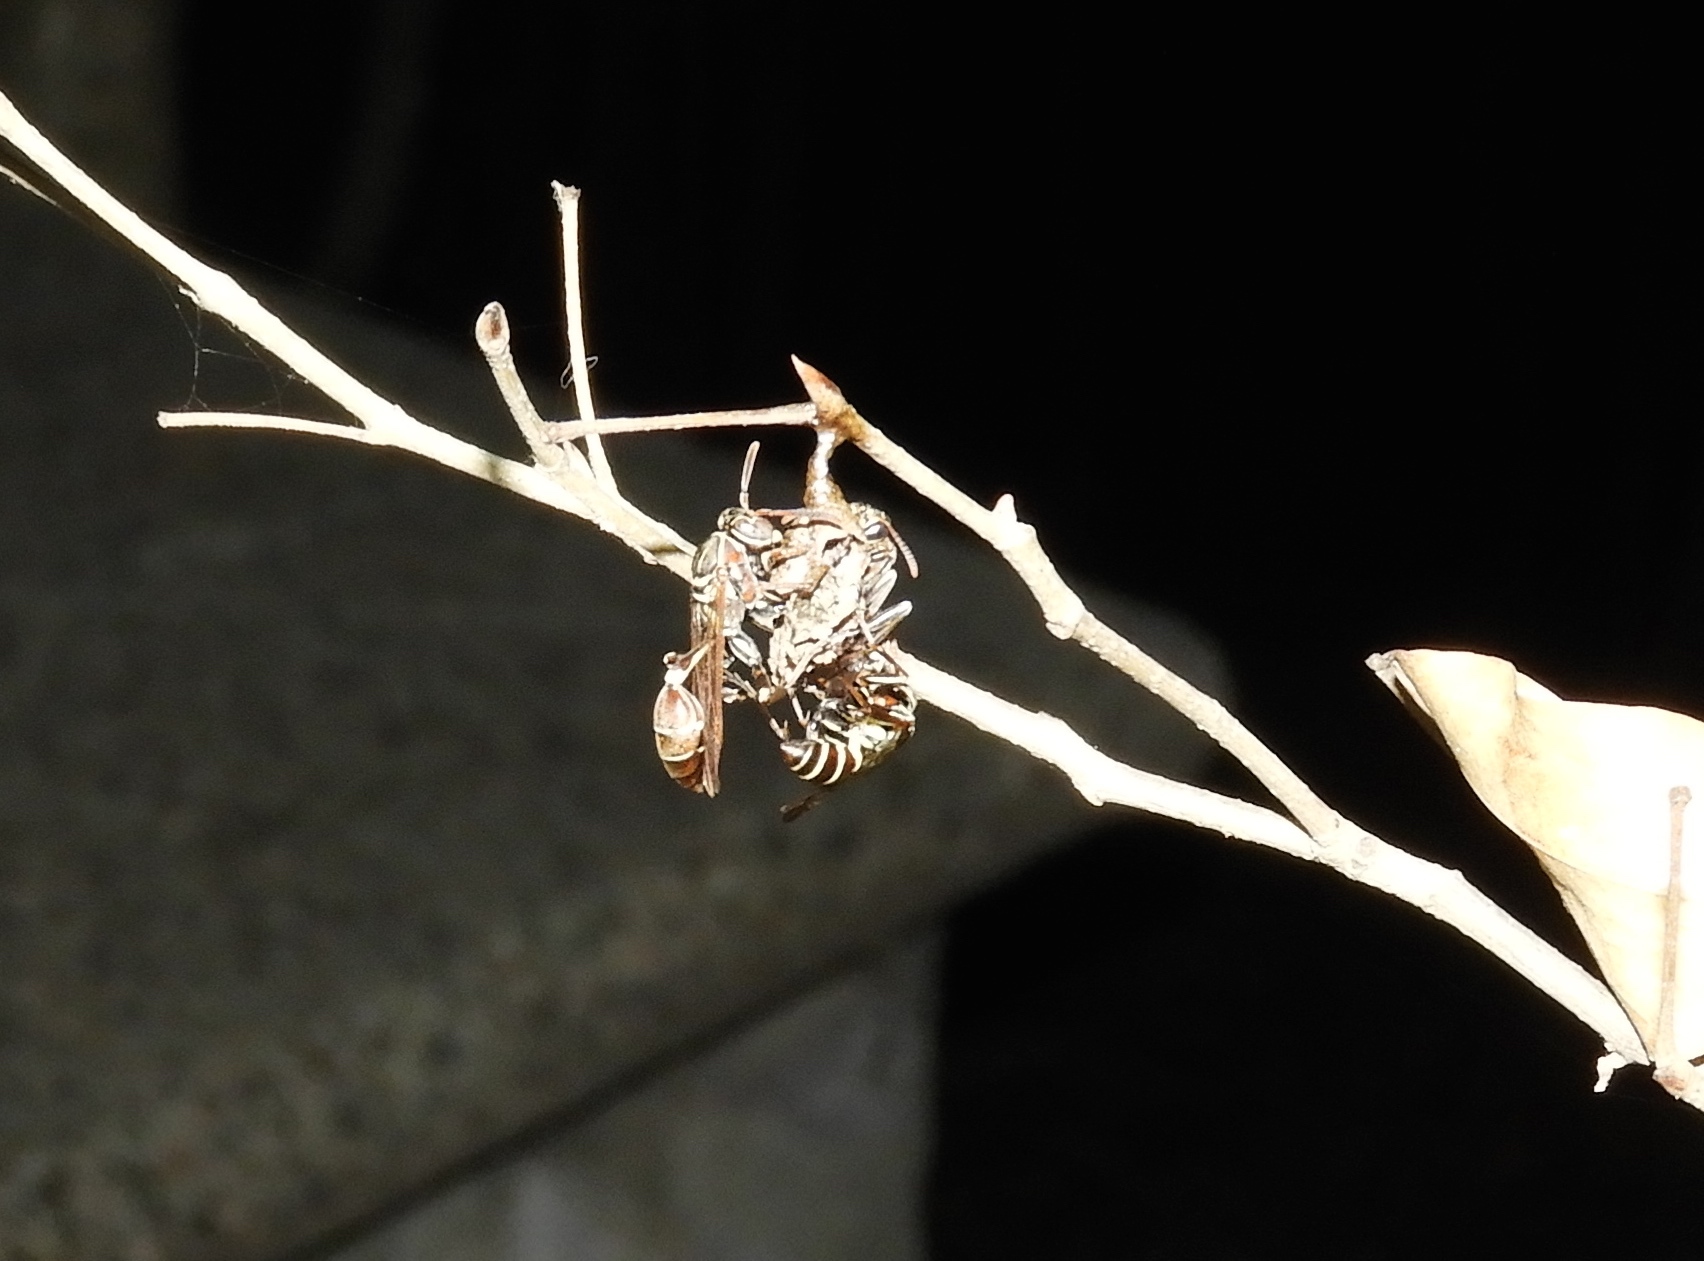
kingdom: Animalia
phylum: Arthropoda
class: Insecta
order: Hymenoptera
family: Vespidae
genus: Mischocyttarus
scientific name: Mischocyttarus mexicanus
